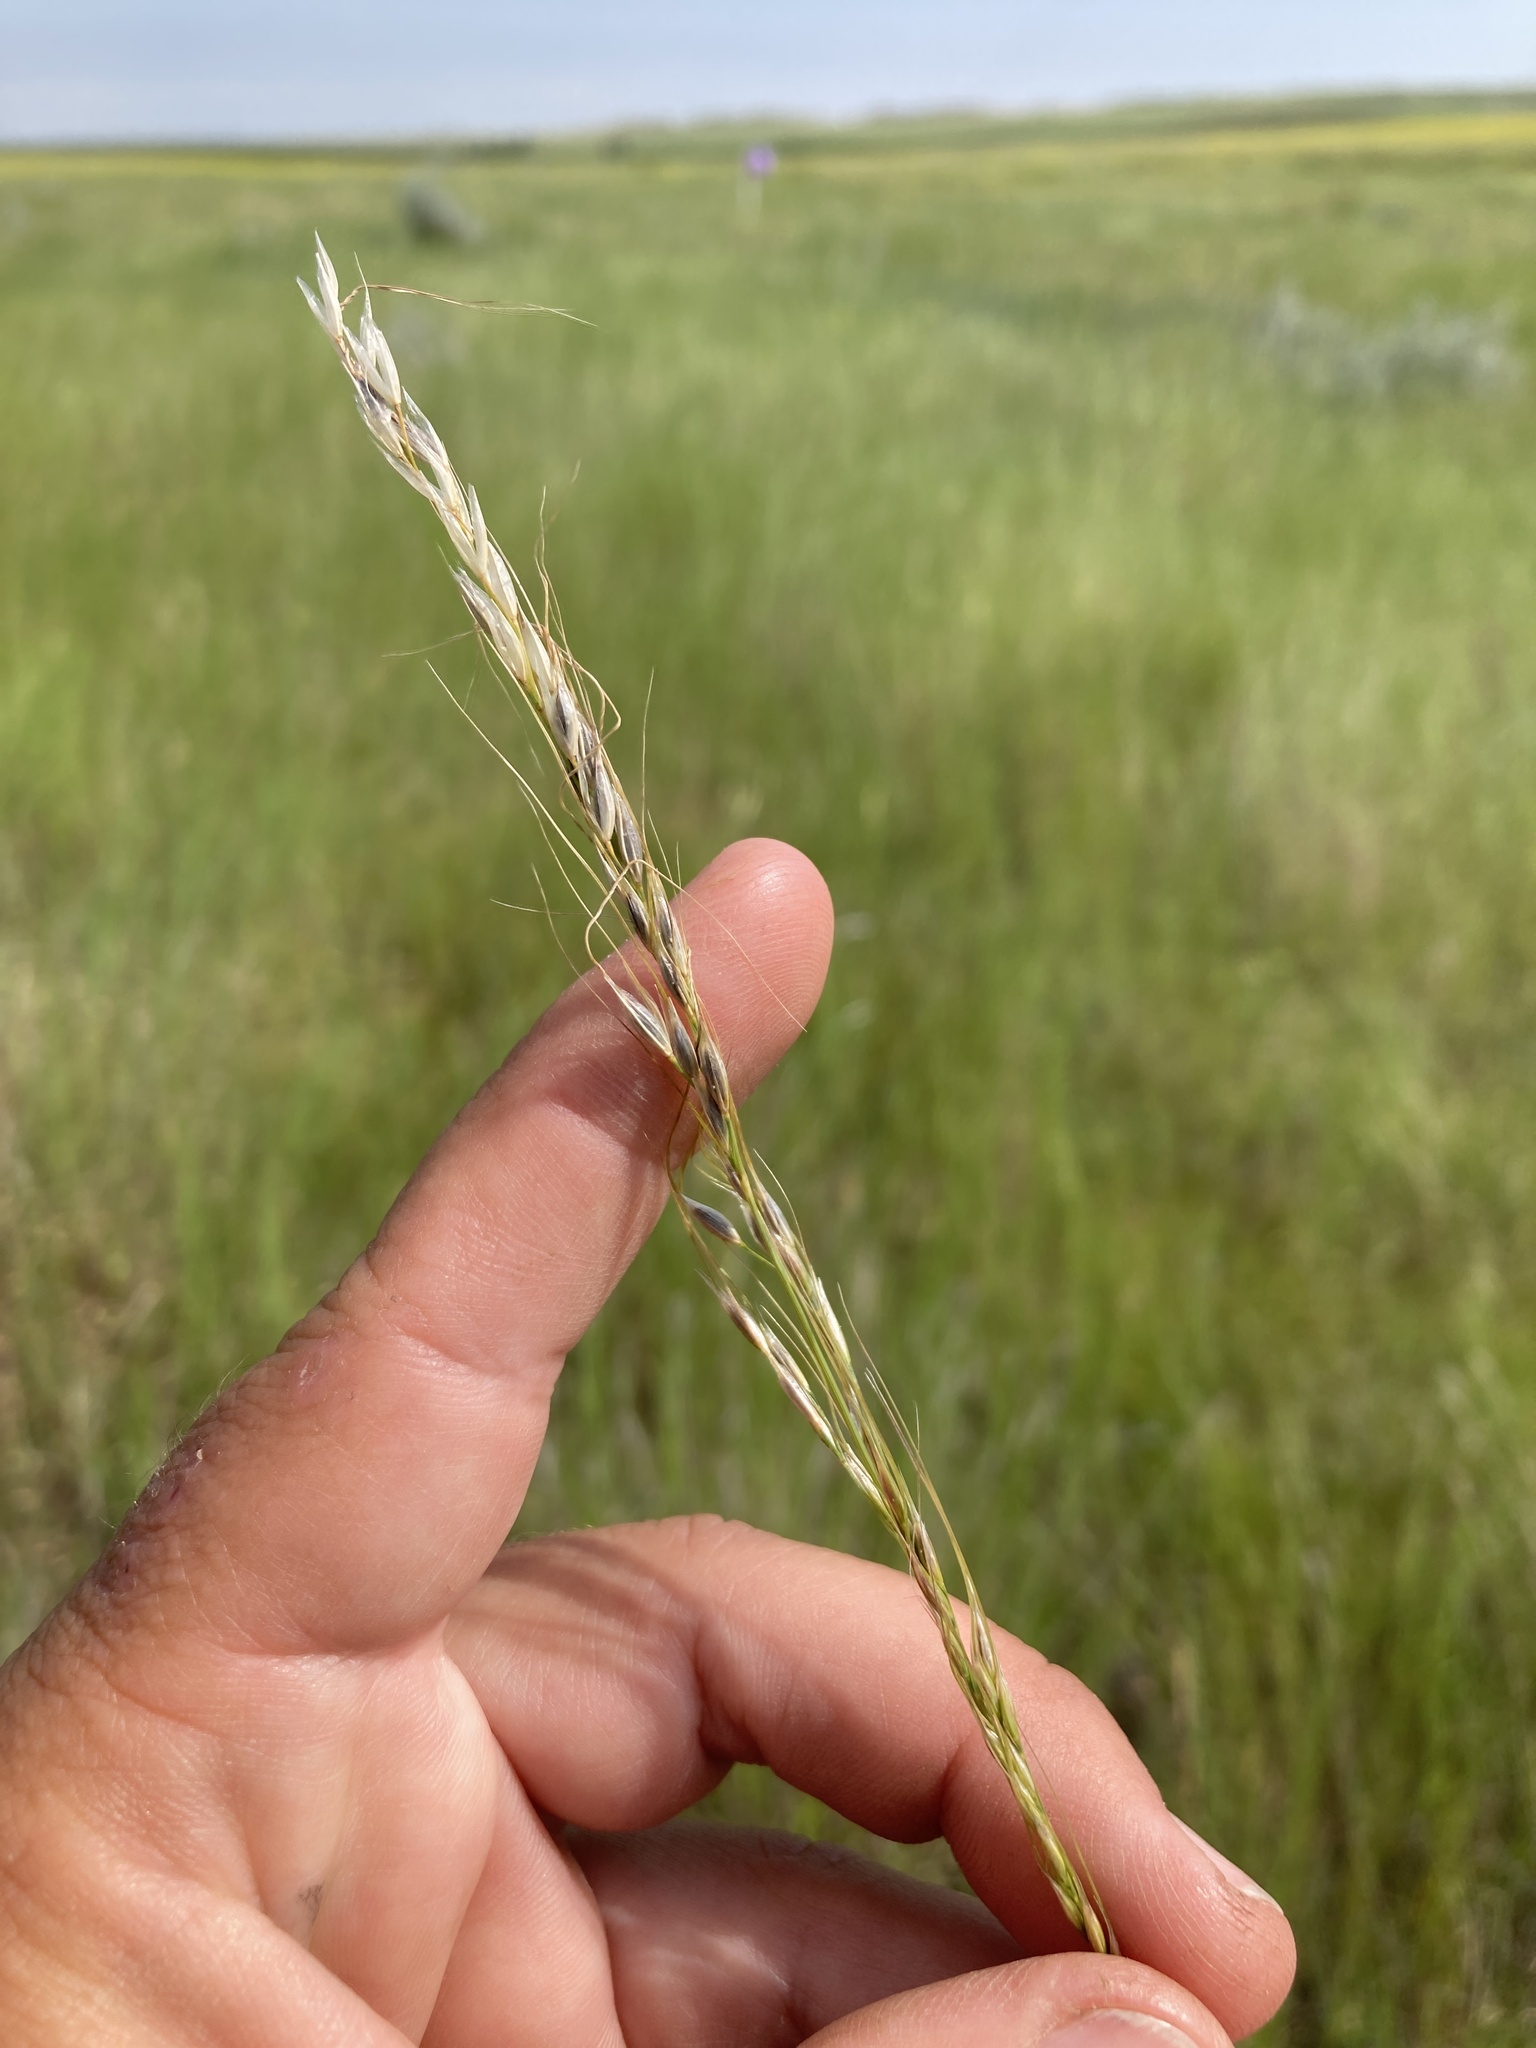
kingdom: Plantae
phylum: Tracheophyta
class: Liliopsida
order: Poales
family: Poaceae
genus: Nassella
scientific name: Nassella viridula
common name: Green needlegrass
